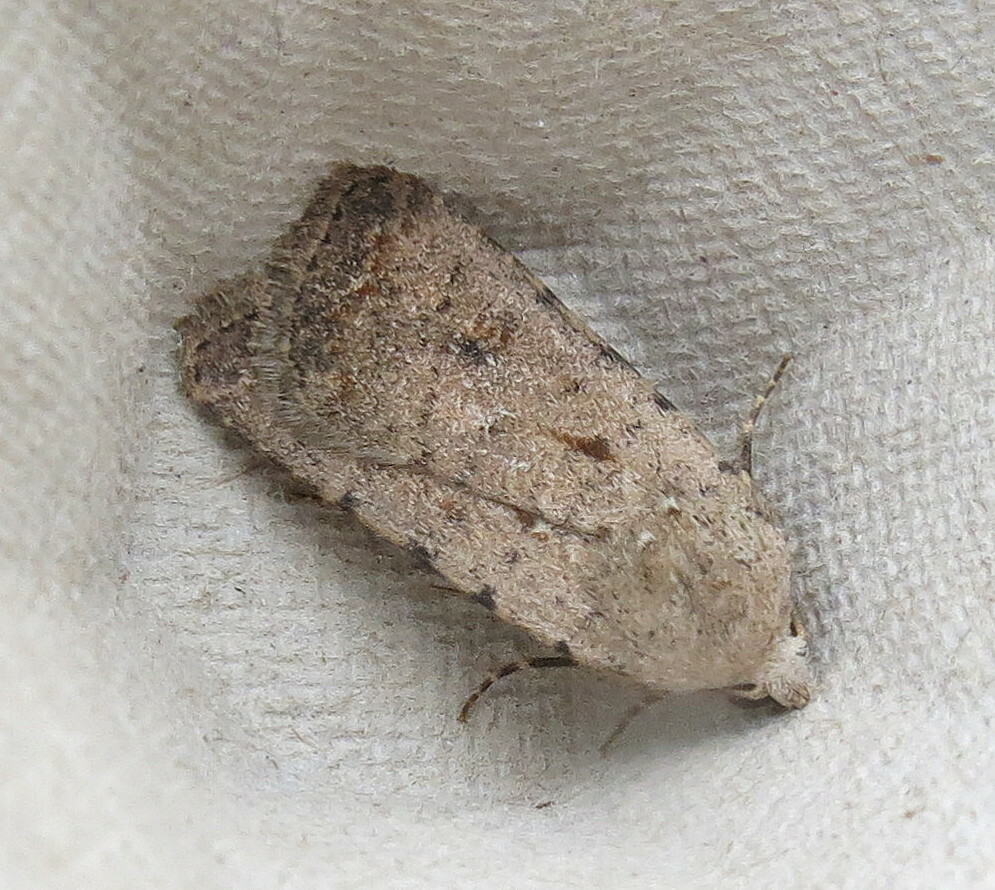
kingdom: Animalia
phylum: Arthropoda
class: Insecta
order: Lepidoptera
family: Noctuidae
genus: Caradrina
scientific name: Caradrina clavipalpis
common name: Pale mottled willow
